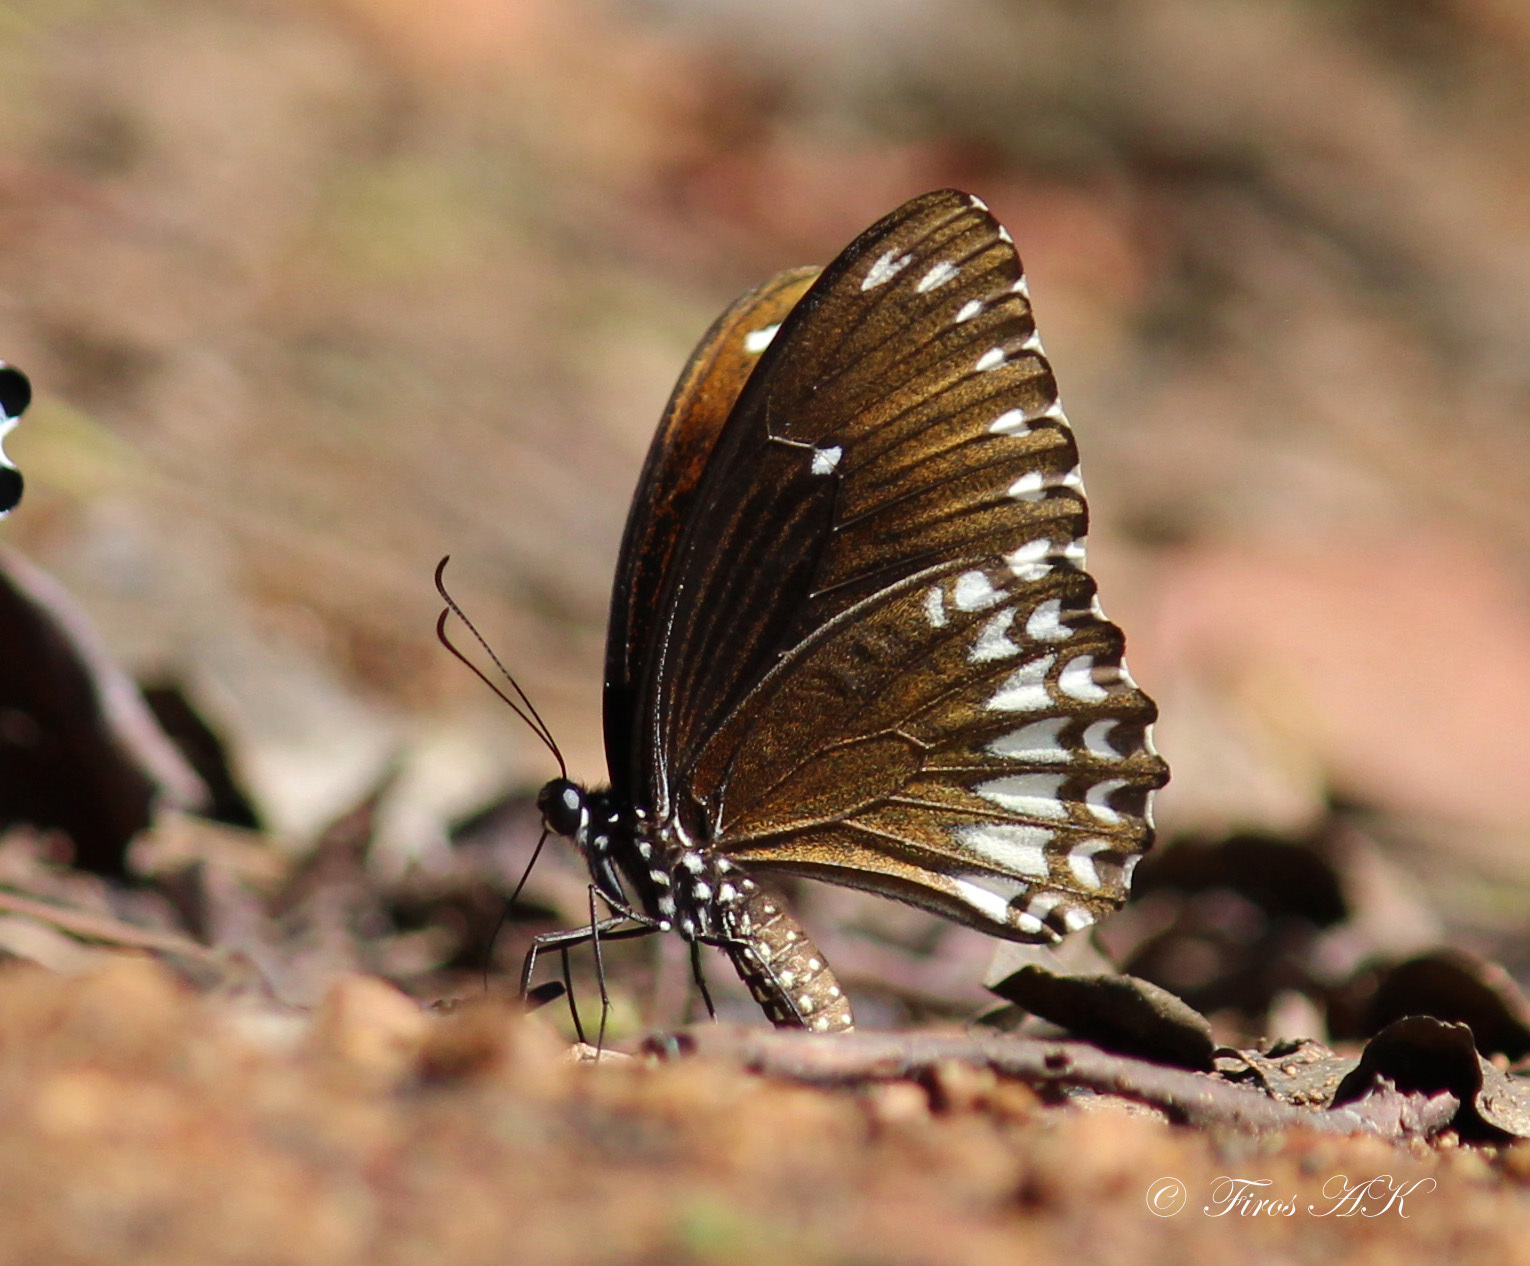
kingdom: Animalia
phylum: Arthropoda
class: Insecta
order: Lepidoptera
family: Papilionidae
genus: Papilio
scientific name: Papilio dravidarum
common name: Malabar raven
